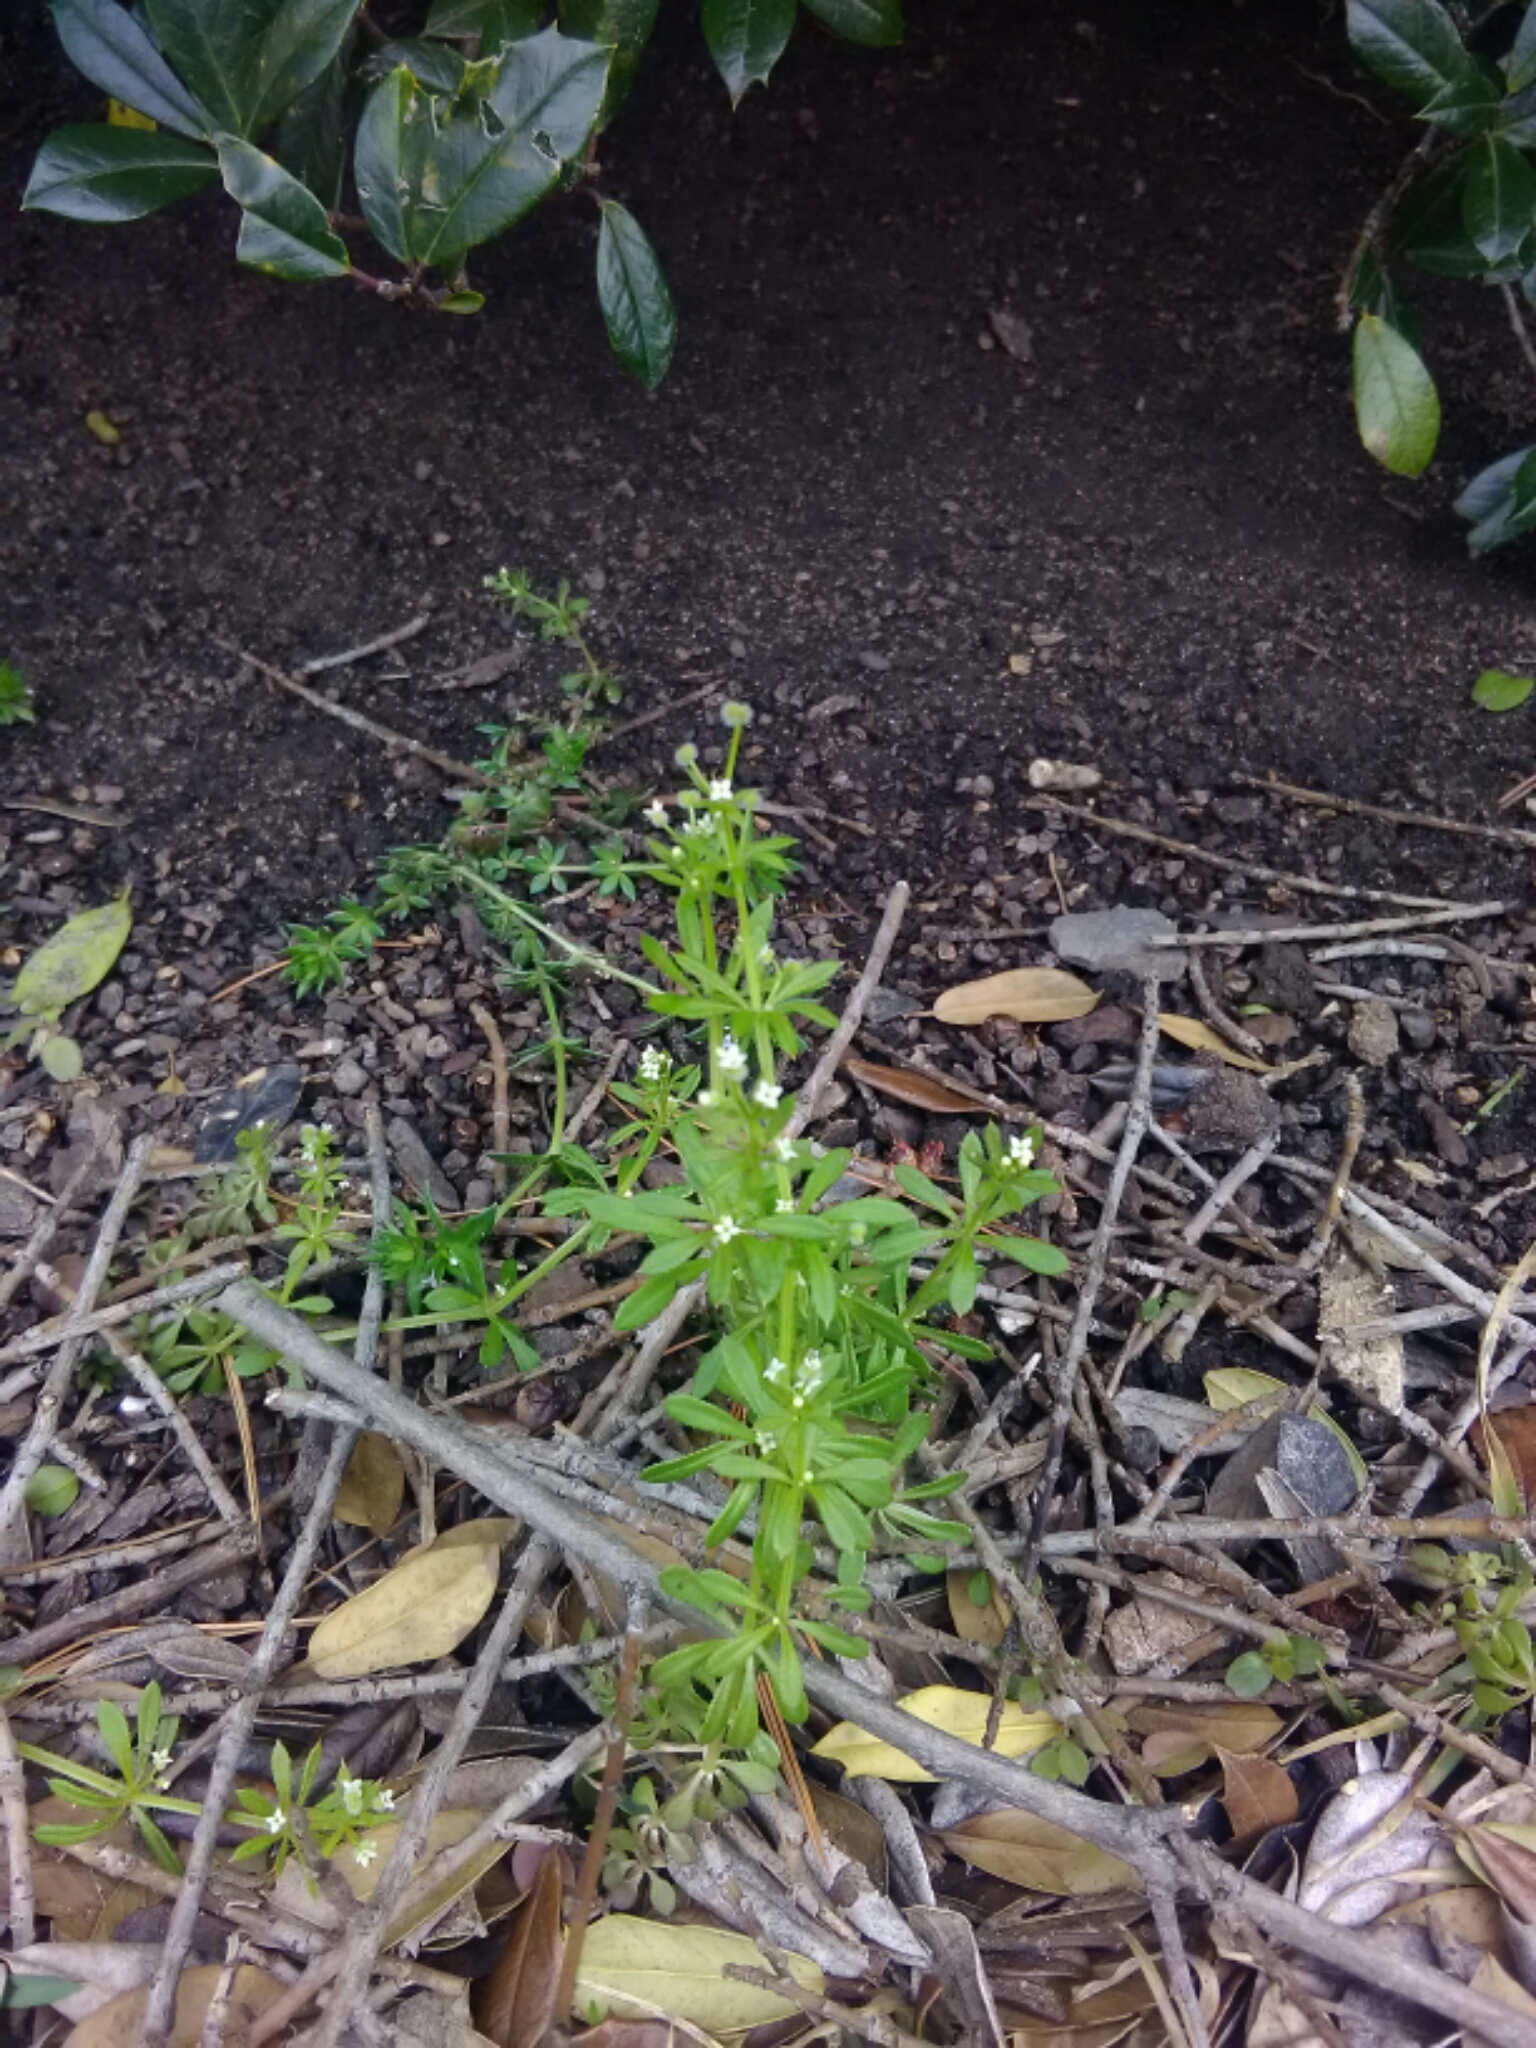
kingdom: Plantae
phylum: Tracheophyta
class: Magnoliopsida
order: Gentianales
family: Rubiaceae
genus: Galium
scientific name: Galium aparine
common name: Cleavers
